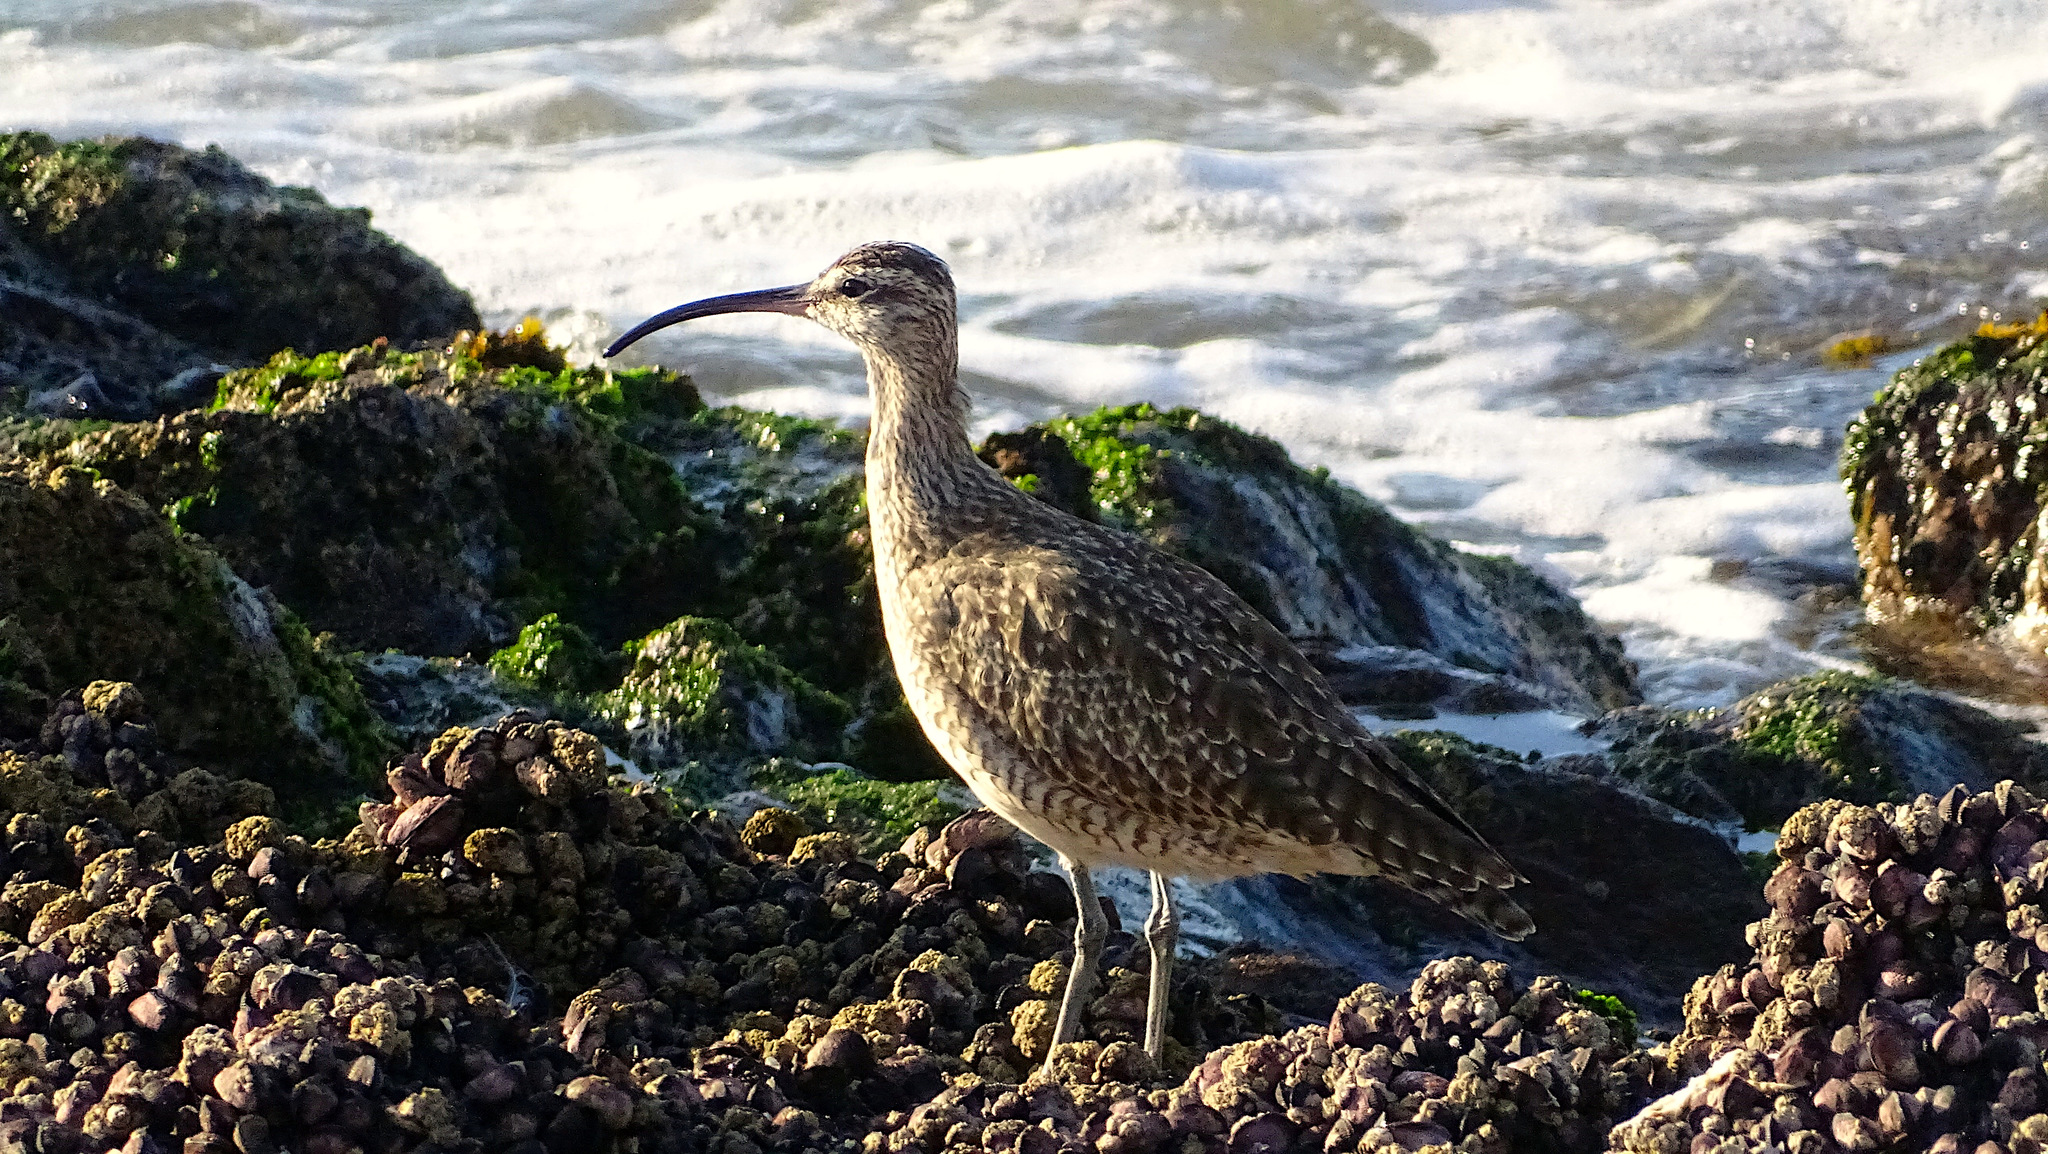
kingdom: Animalia
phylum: Chordata
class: Aves
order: Charadriiformes
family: Scolopacidae
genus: Numenius
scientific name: Numenius phaeopus
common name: Whimbrel
